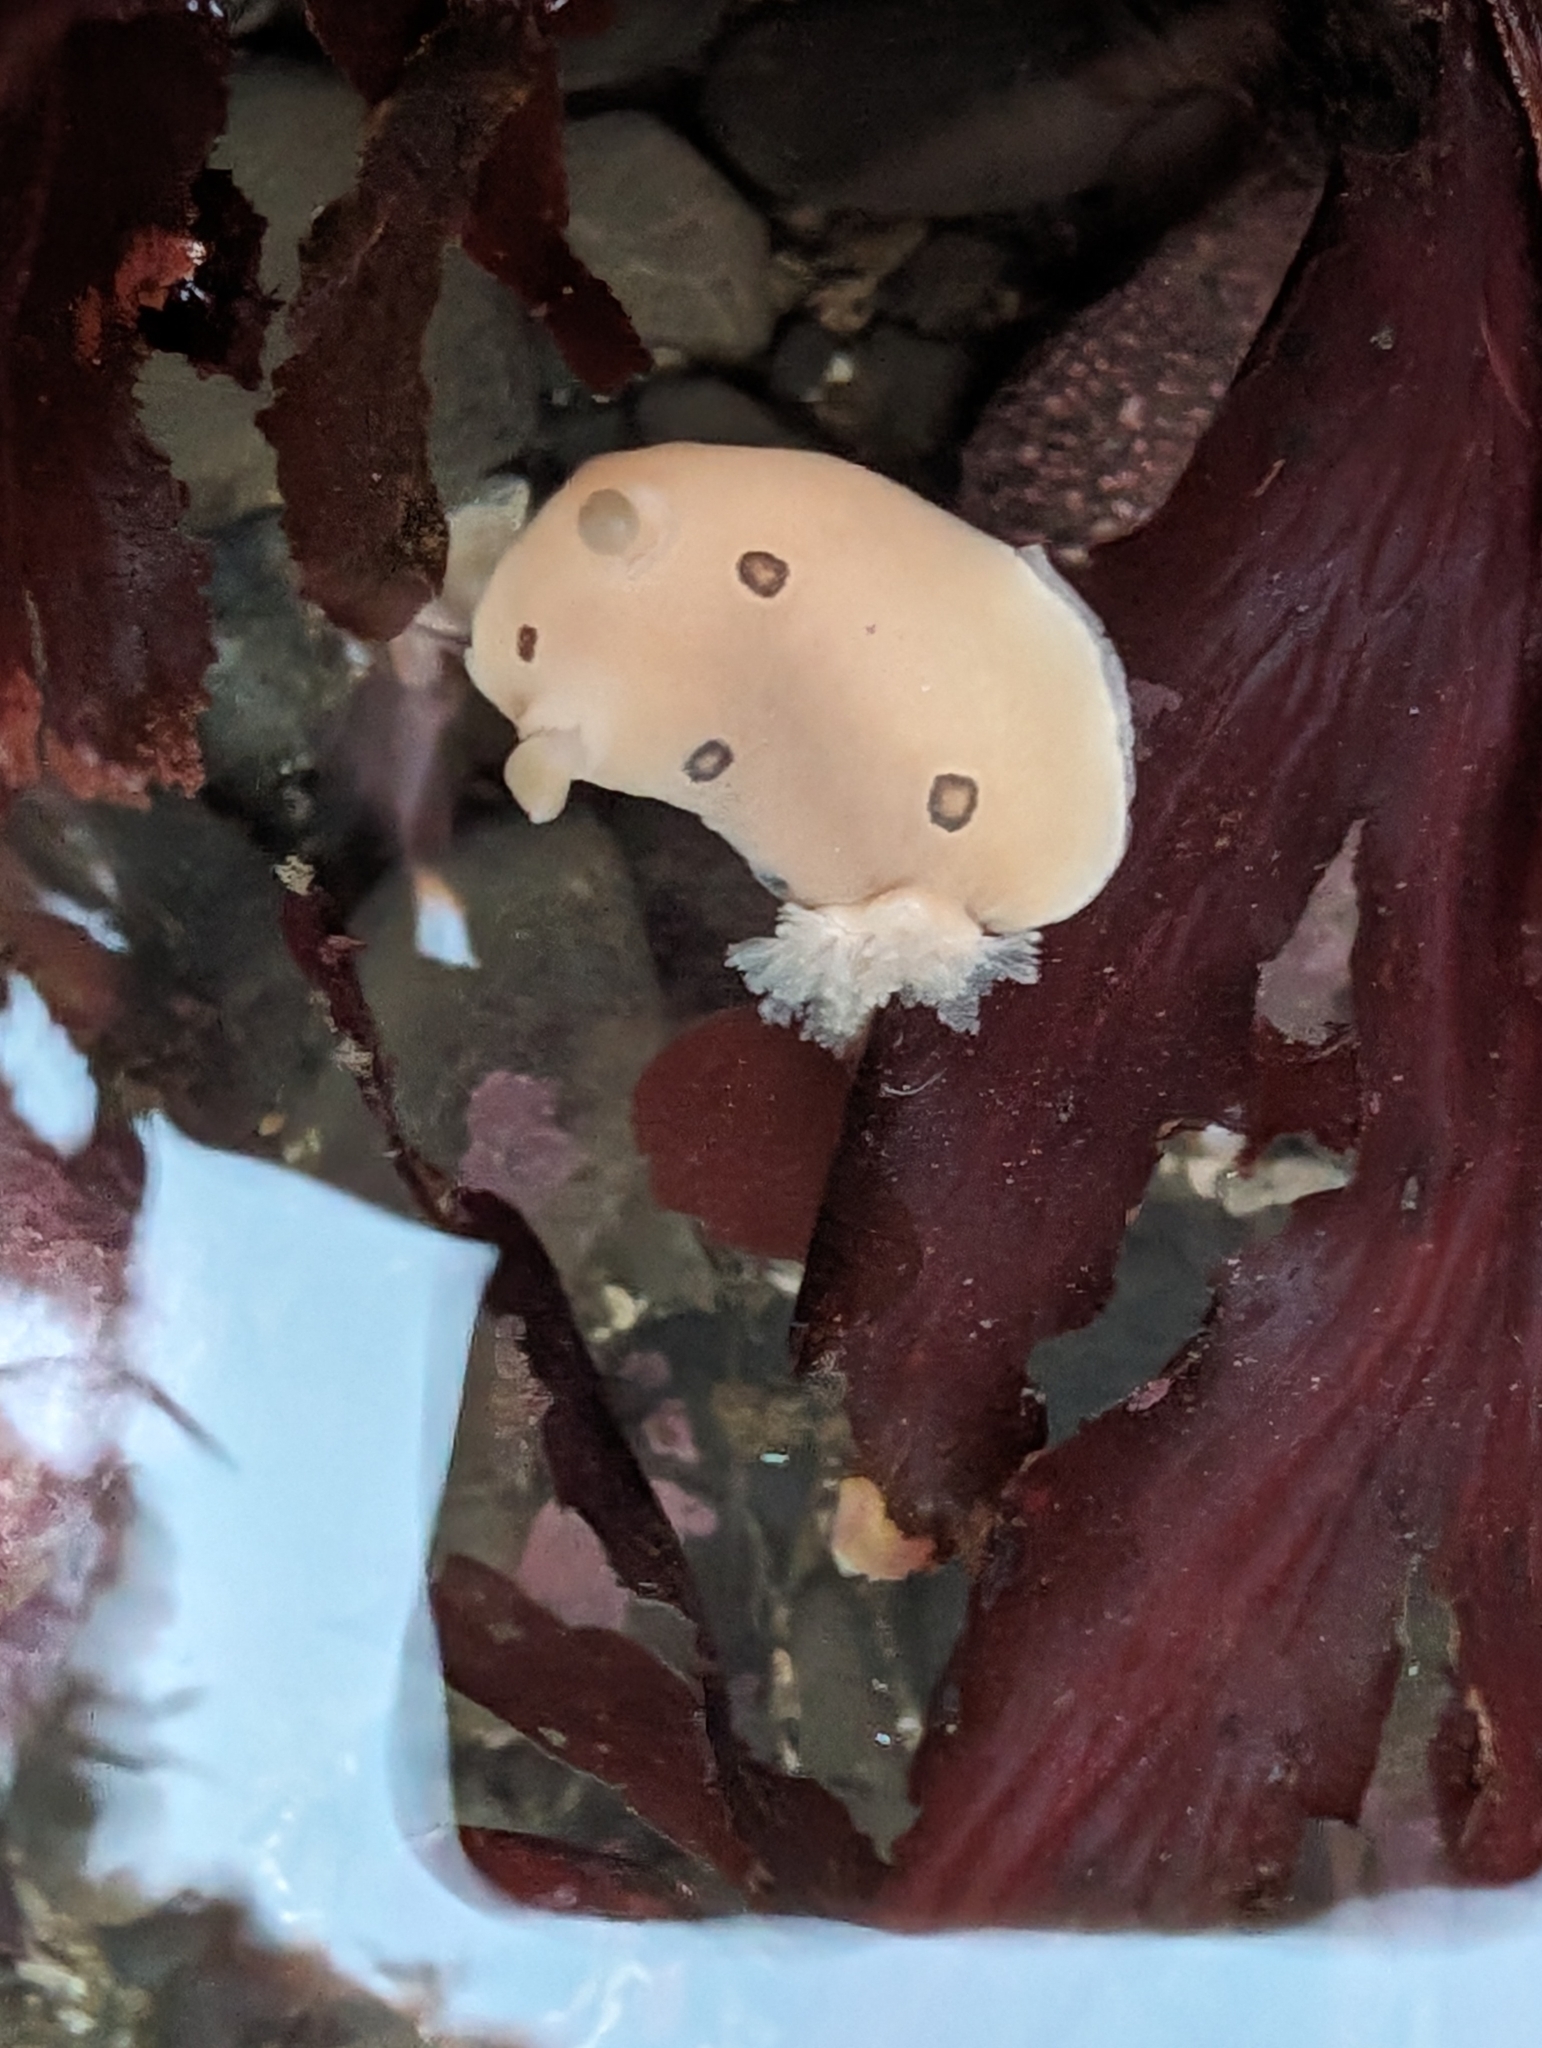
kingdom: Animalia
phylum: Mollusca
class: Gastropoda
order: Nudibranchia
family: Discodorididae
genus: Diaulula
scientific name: Diaulula sandiegensis
